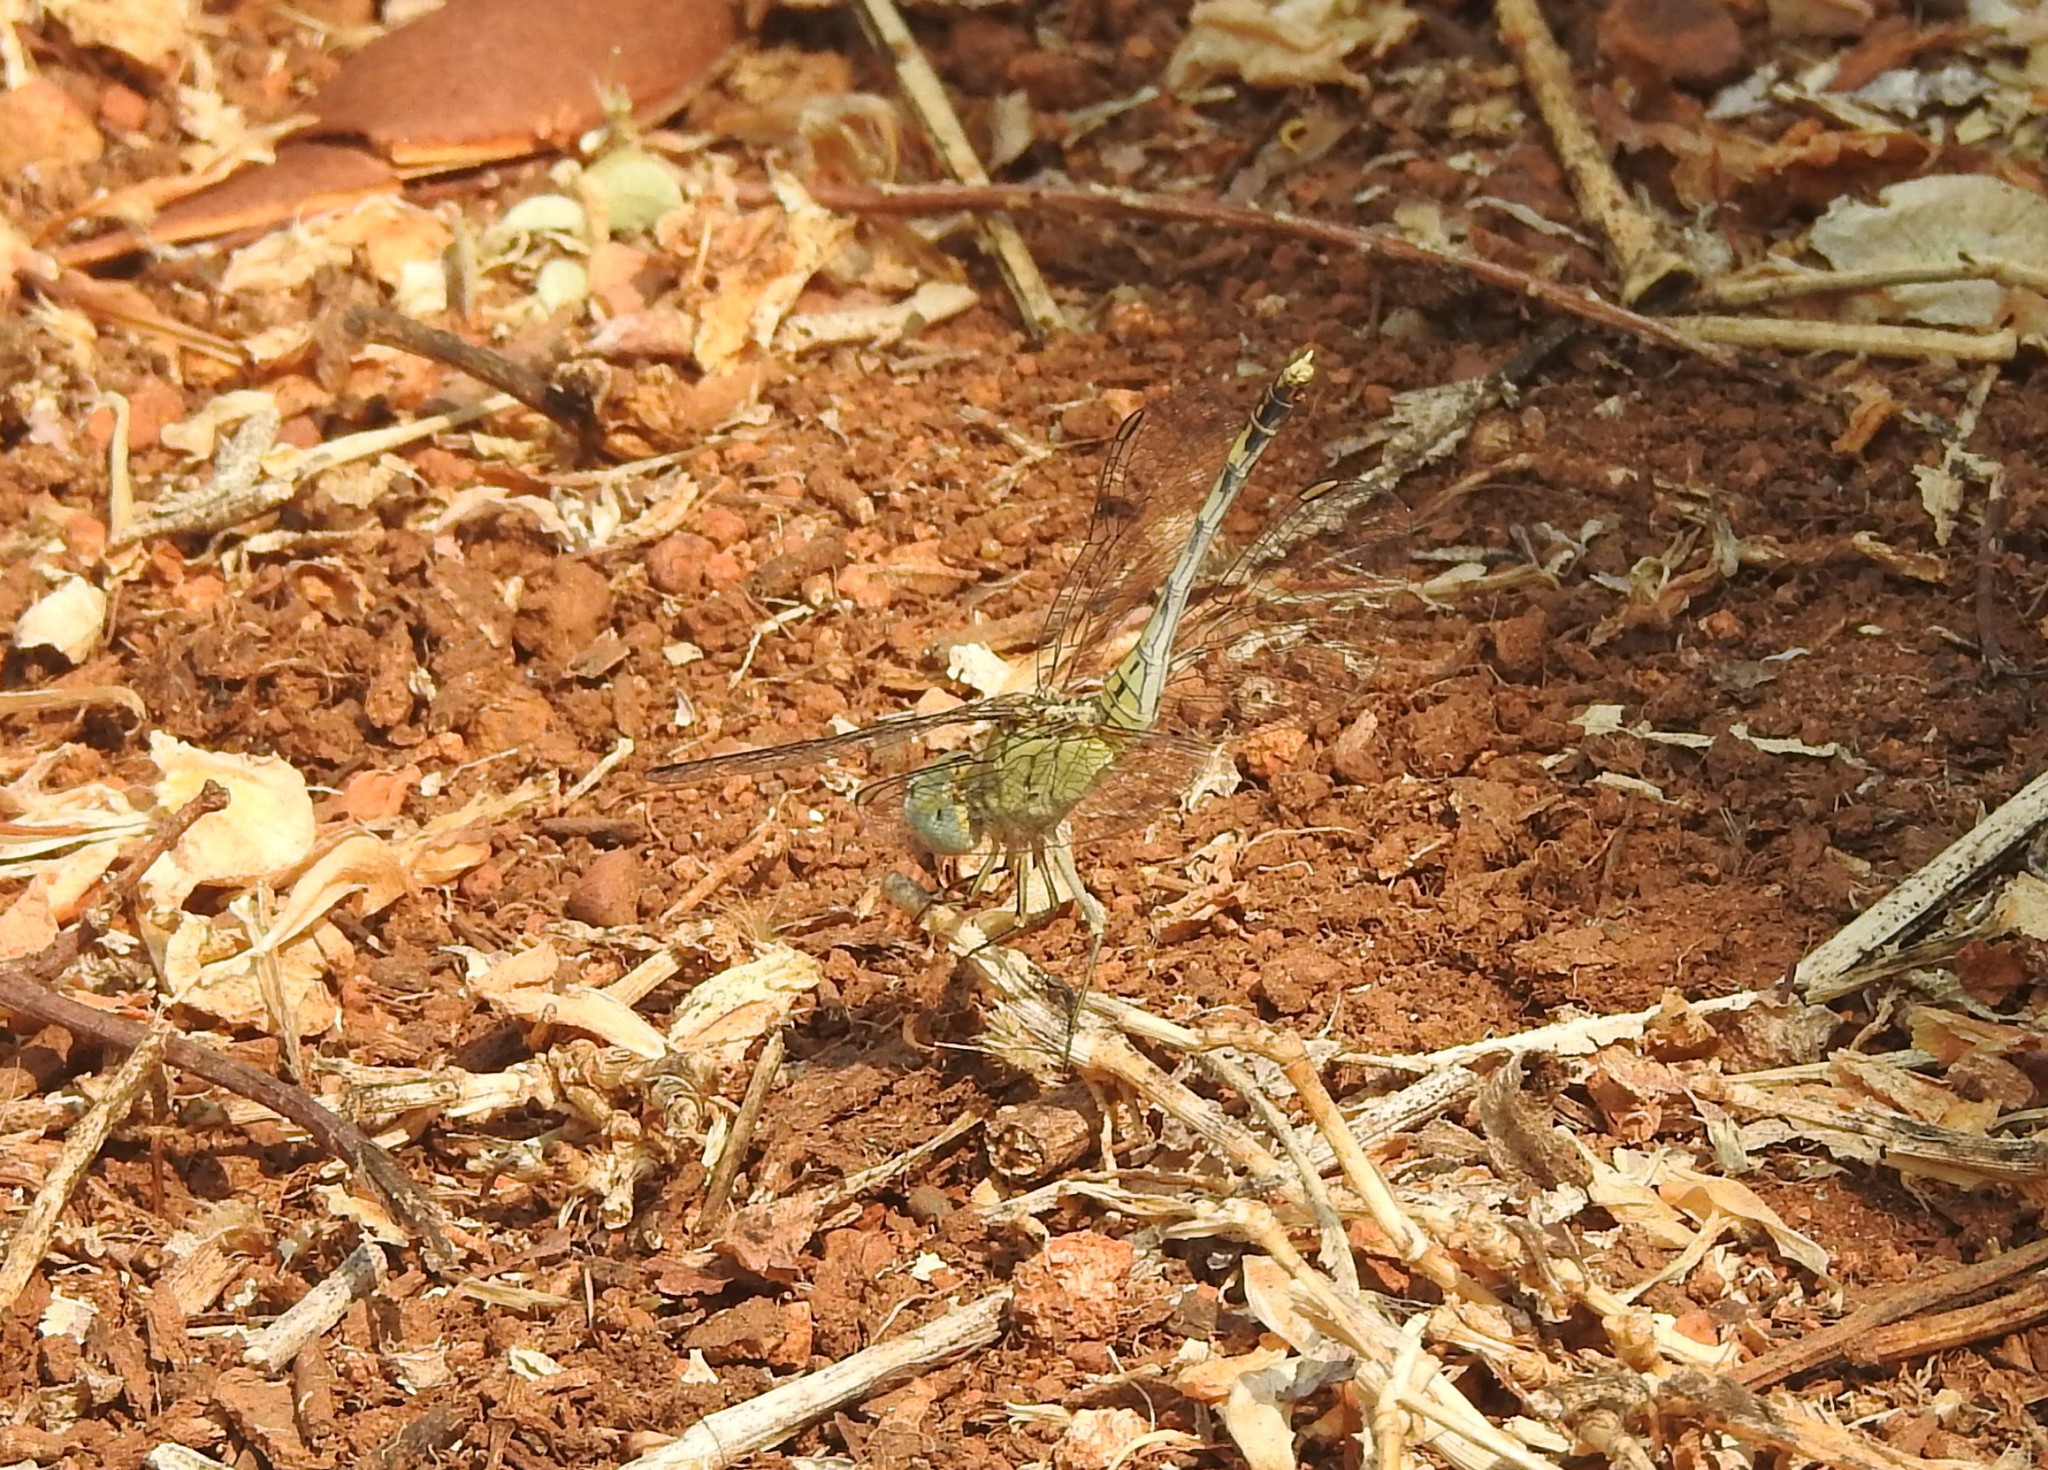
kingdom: Animalia
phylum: Arthropoda
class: Insecta
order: Odonata
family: Libellulidae
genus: Diplacodes
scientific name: Diplacodes trivialis
